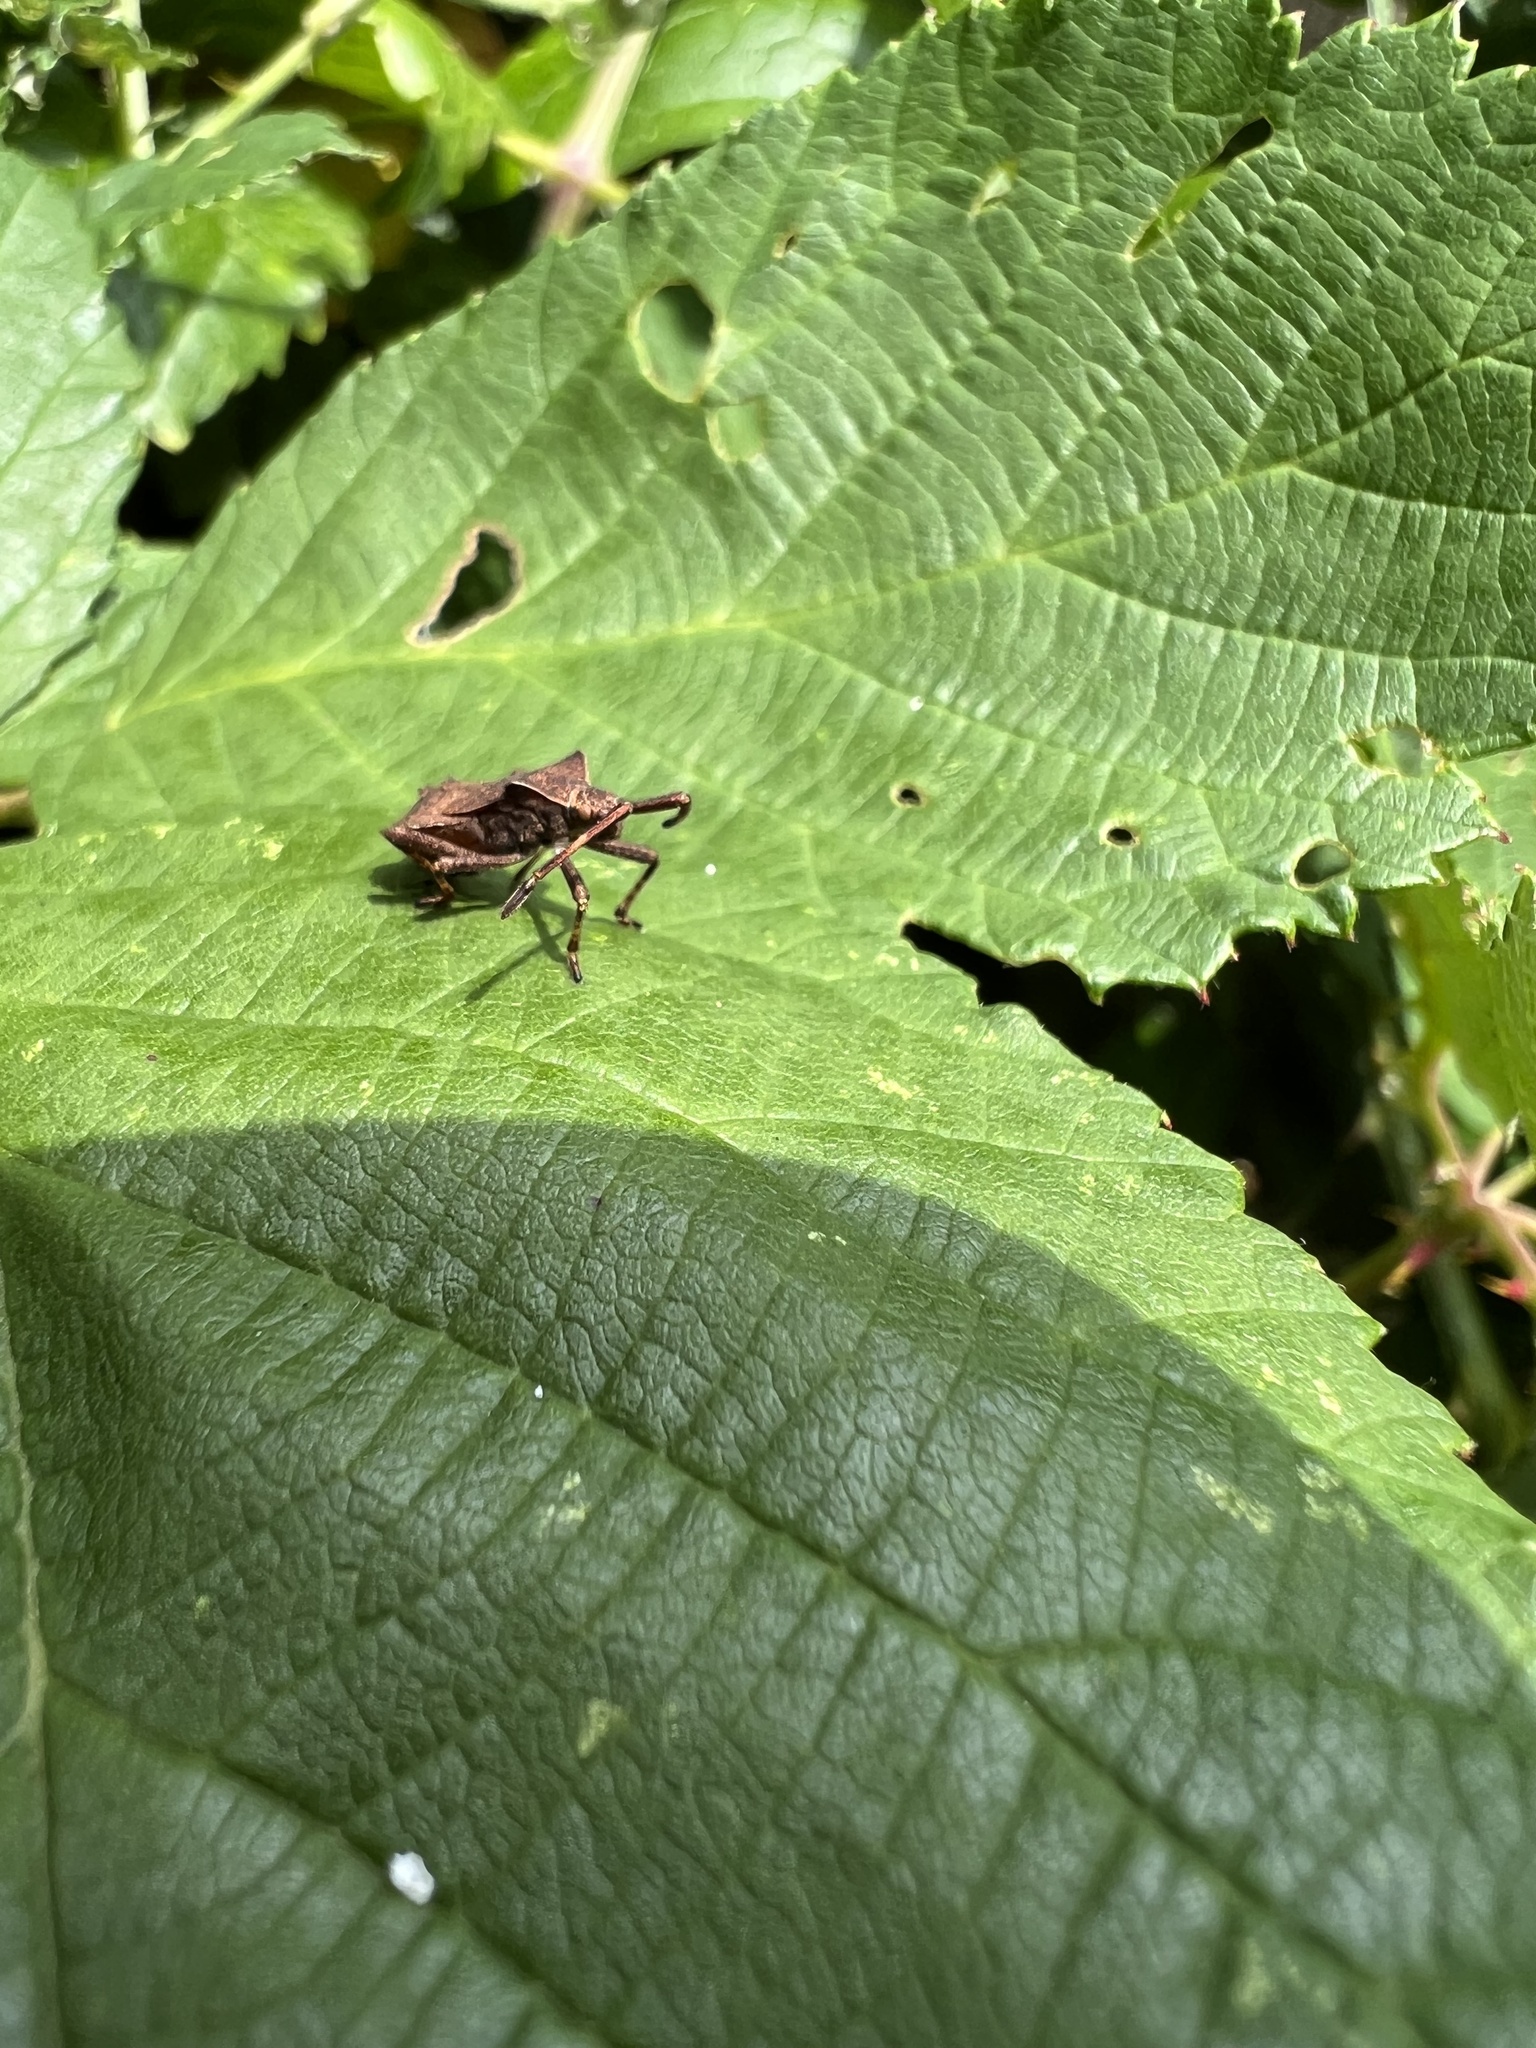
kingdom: Animalia
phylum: Arthropoda
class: Insecta
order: Hemiptera
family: Coreidae
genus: Coreus
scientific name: Coreus marginatus
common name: Dock bug
